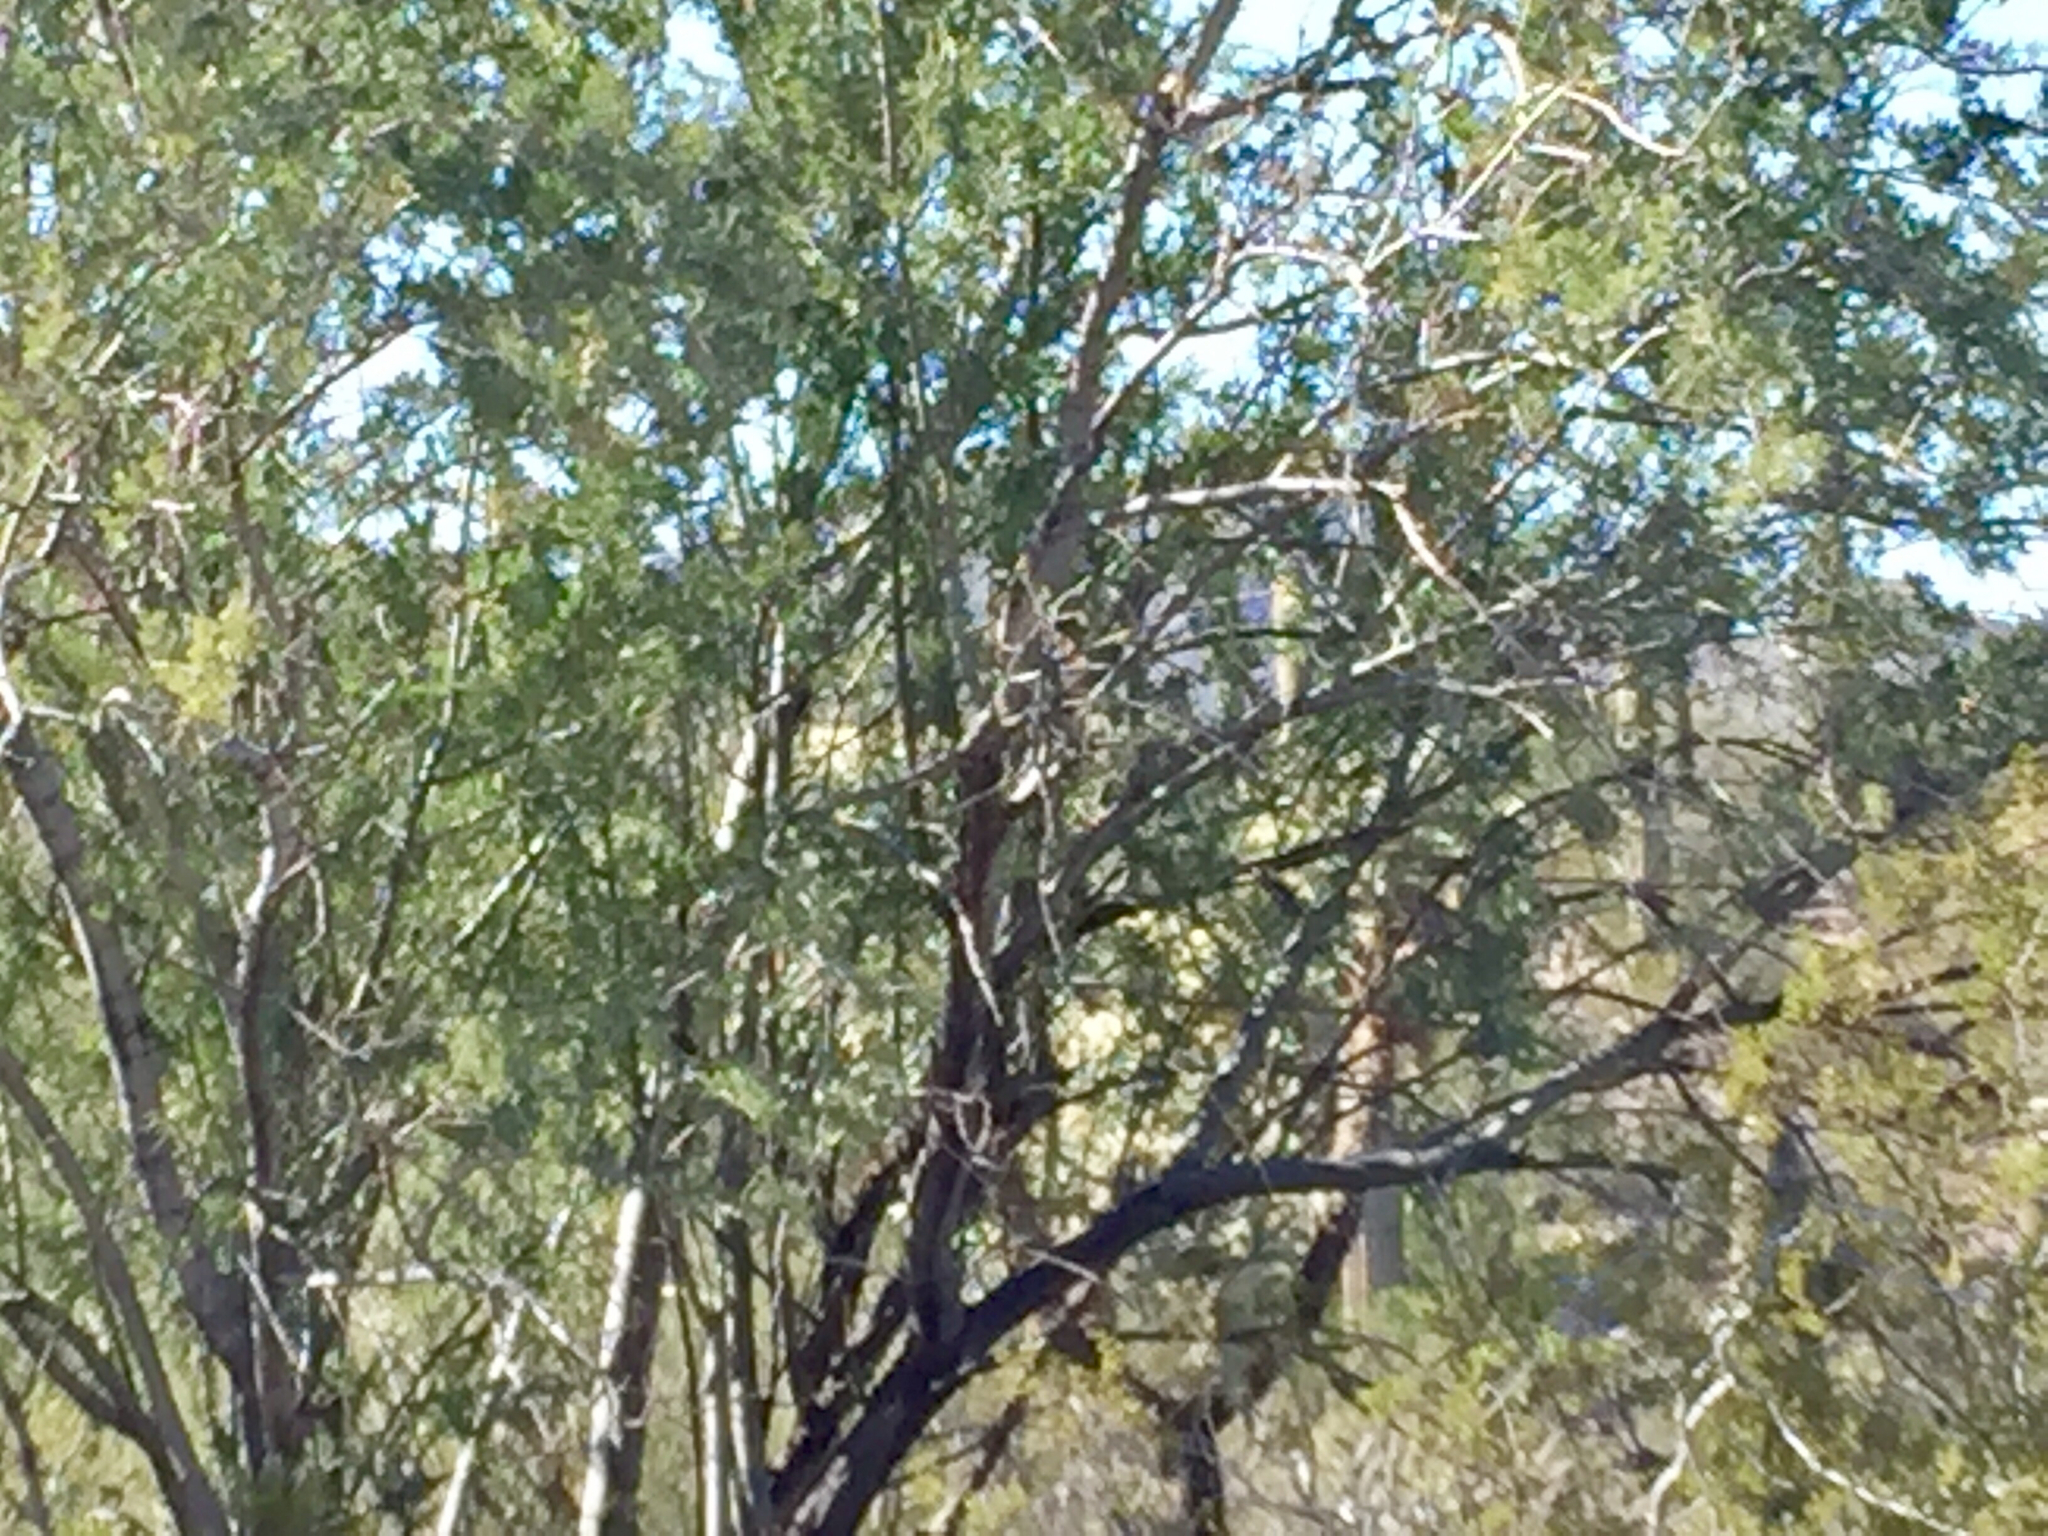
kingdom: Plantae
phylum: Tracheophyta
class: Magnoliopsida
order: Fabales
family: Fabaceae
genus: Olneya
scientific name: Olneya tesota
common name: Desert ironwood
